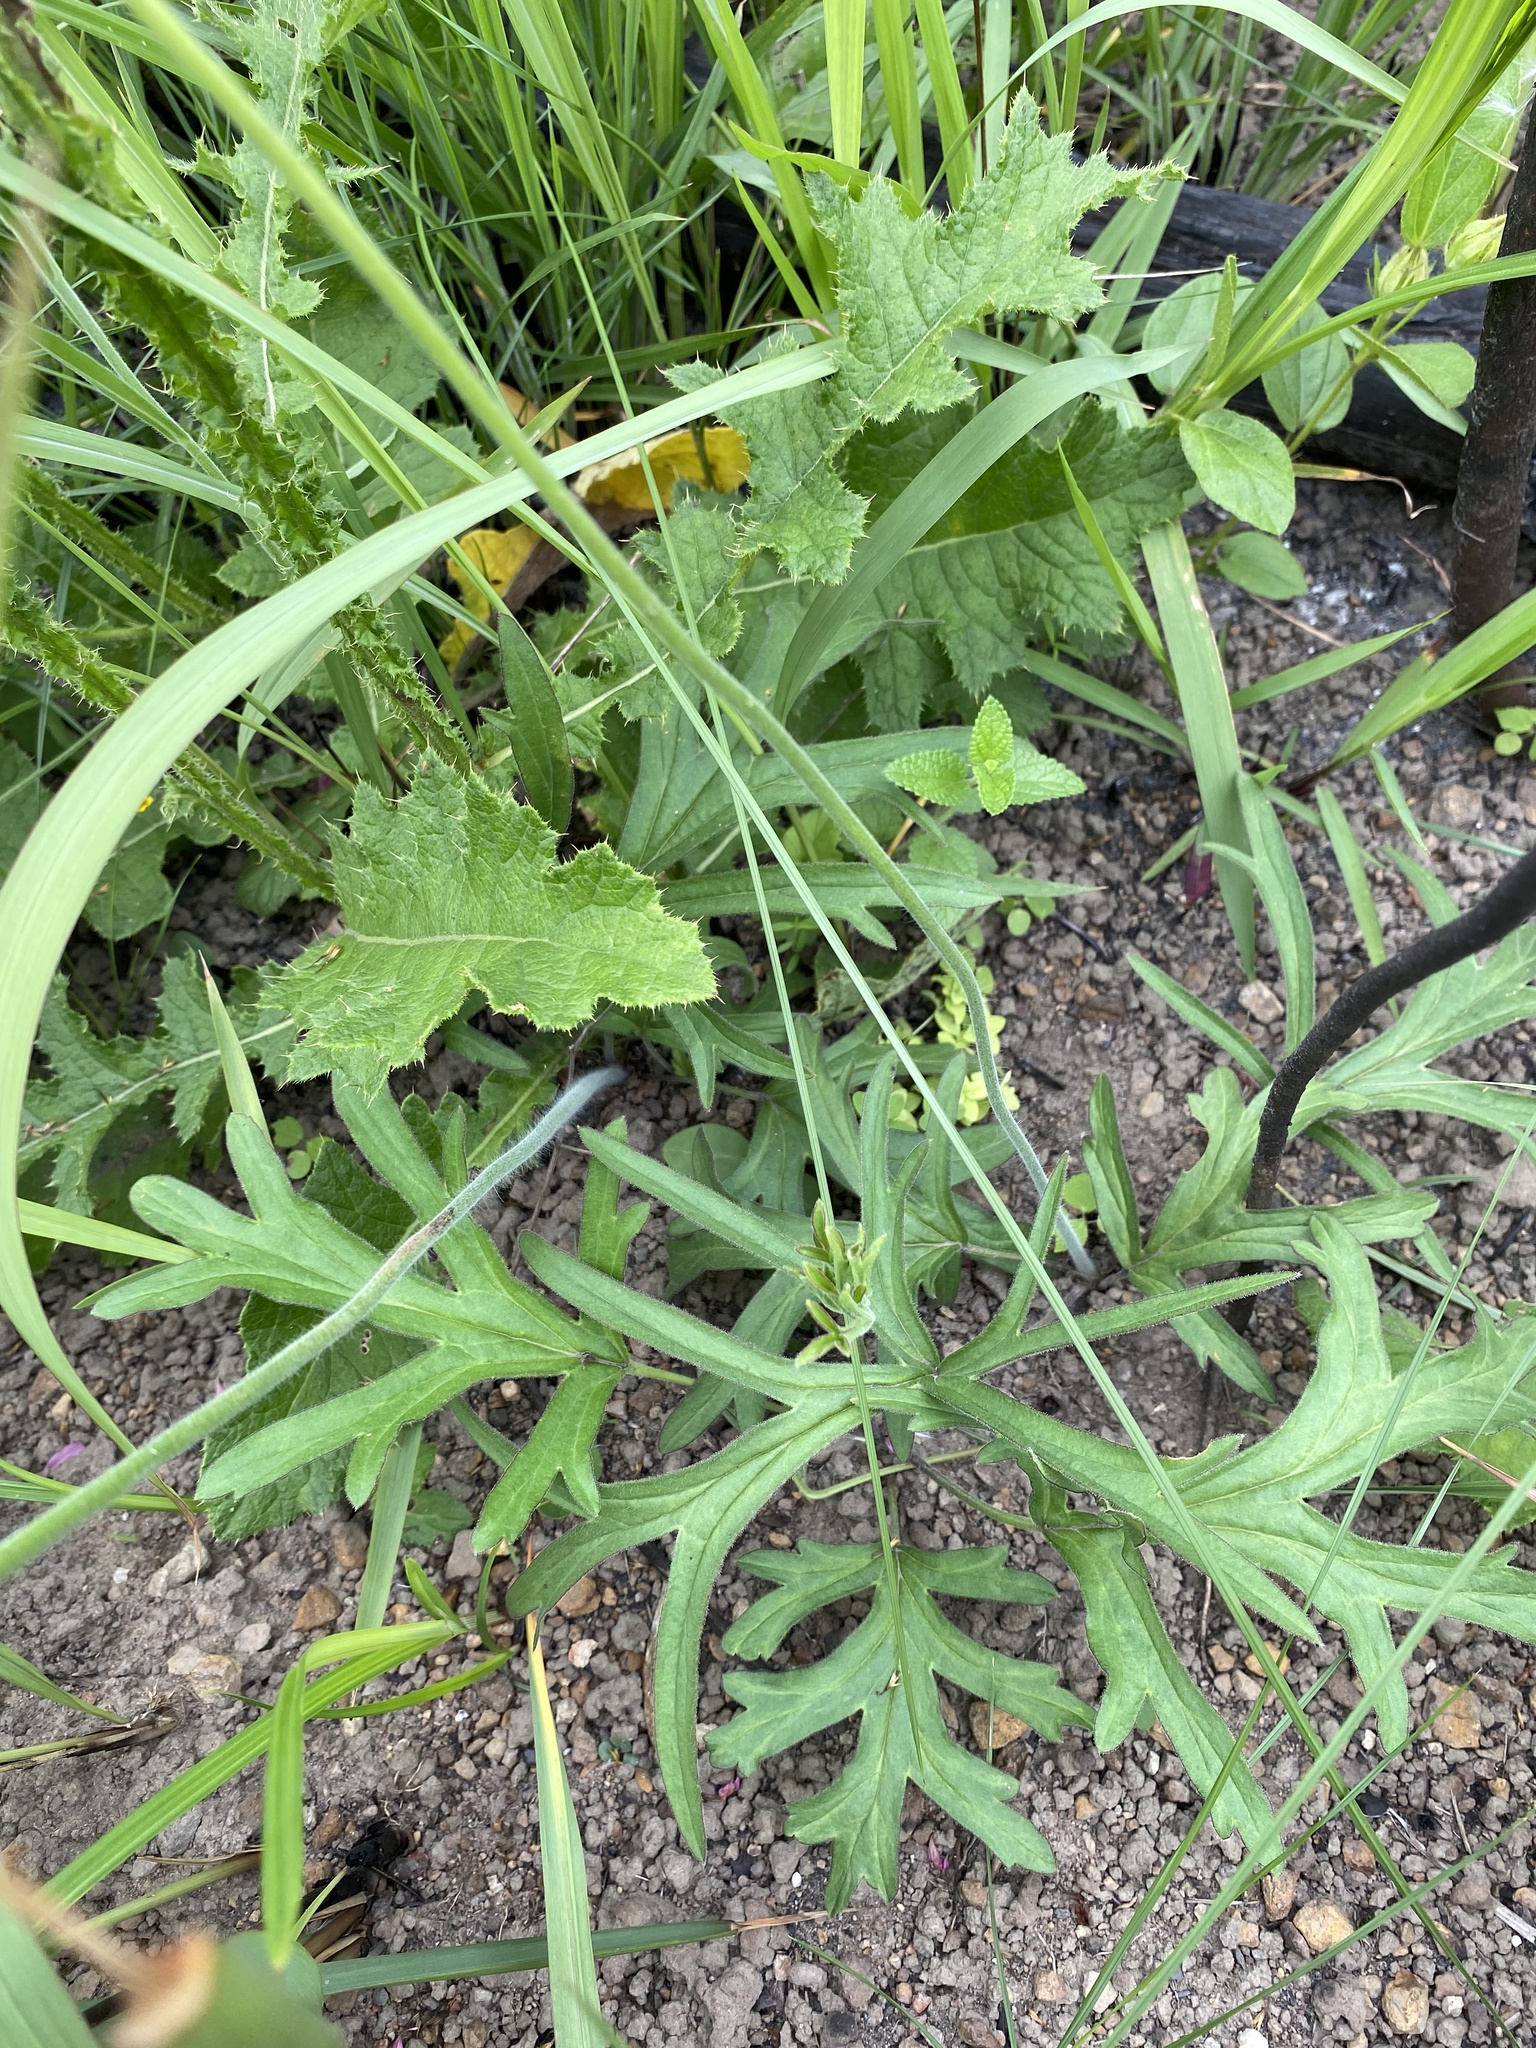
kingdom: Plantae
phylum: Tracheophyta
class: Magnoliopsida
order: Geraniales
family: Geraniaceae
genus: Pelargonium
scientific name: Pelargonium luridum
